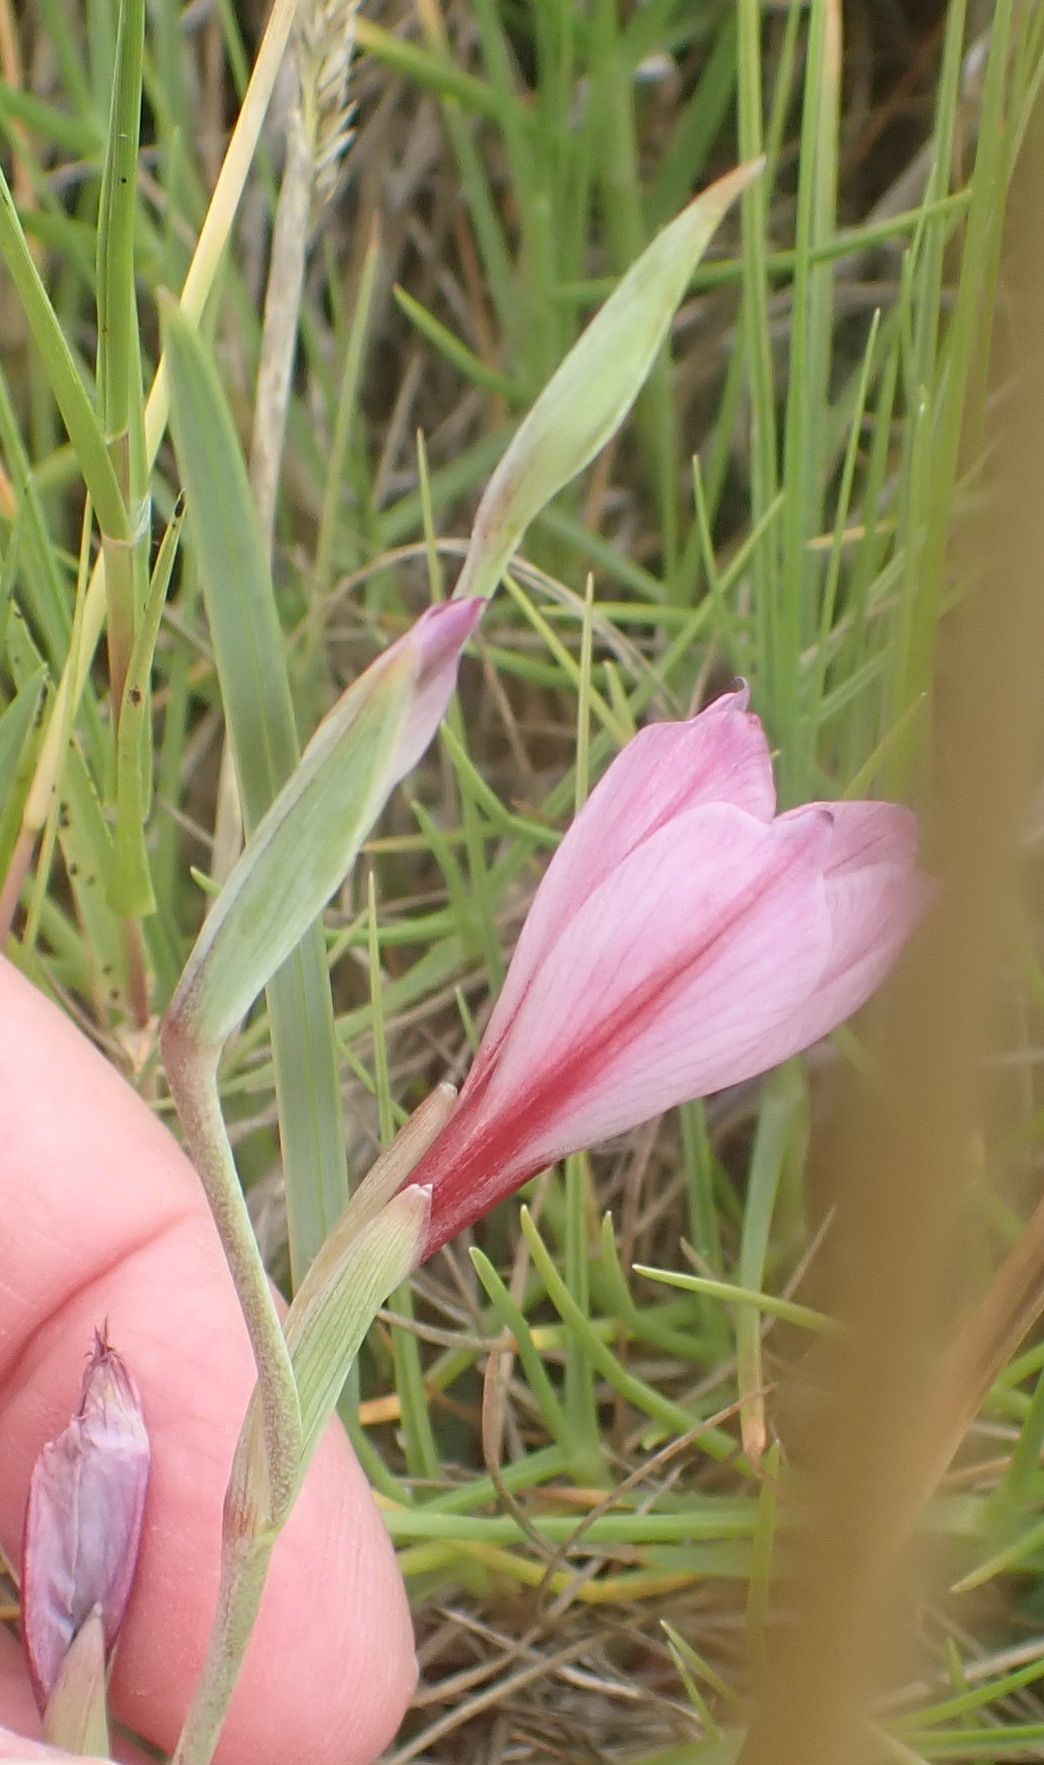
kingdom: Plantae
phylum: Tracheophyta
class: Liliopsida
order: Asparagales
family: Iridaceae
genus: Gladiolus
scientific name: Gladiolus gueinzii
